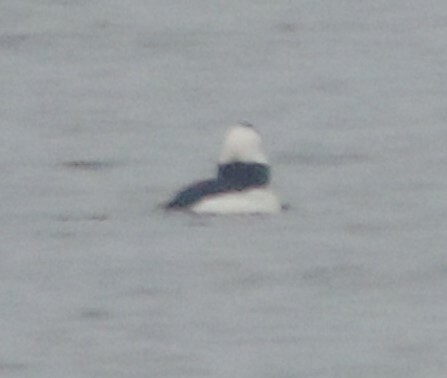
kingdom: Animalia
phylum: Chordata
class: Aves
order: Anseriformes
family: Anatidae
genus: Bucephala
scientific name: Bucephala albeola
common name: Bufflehead
